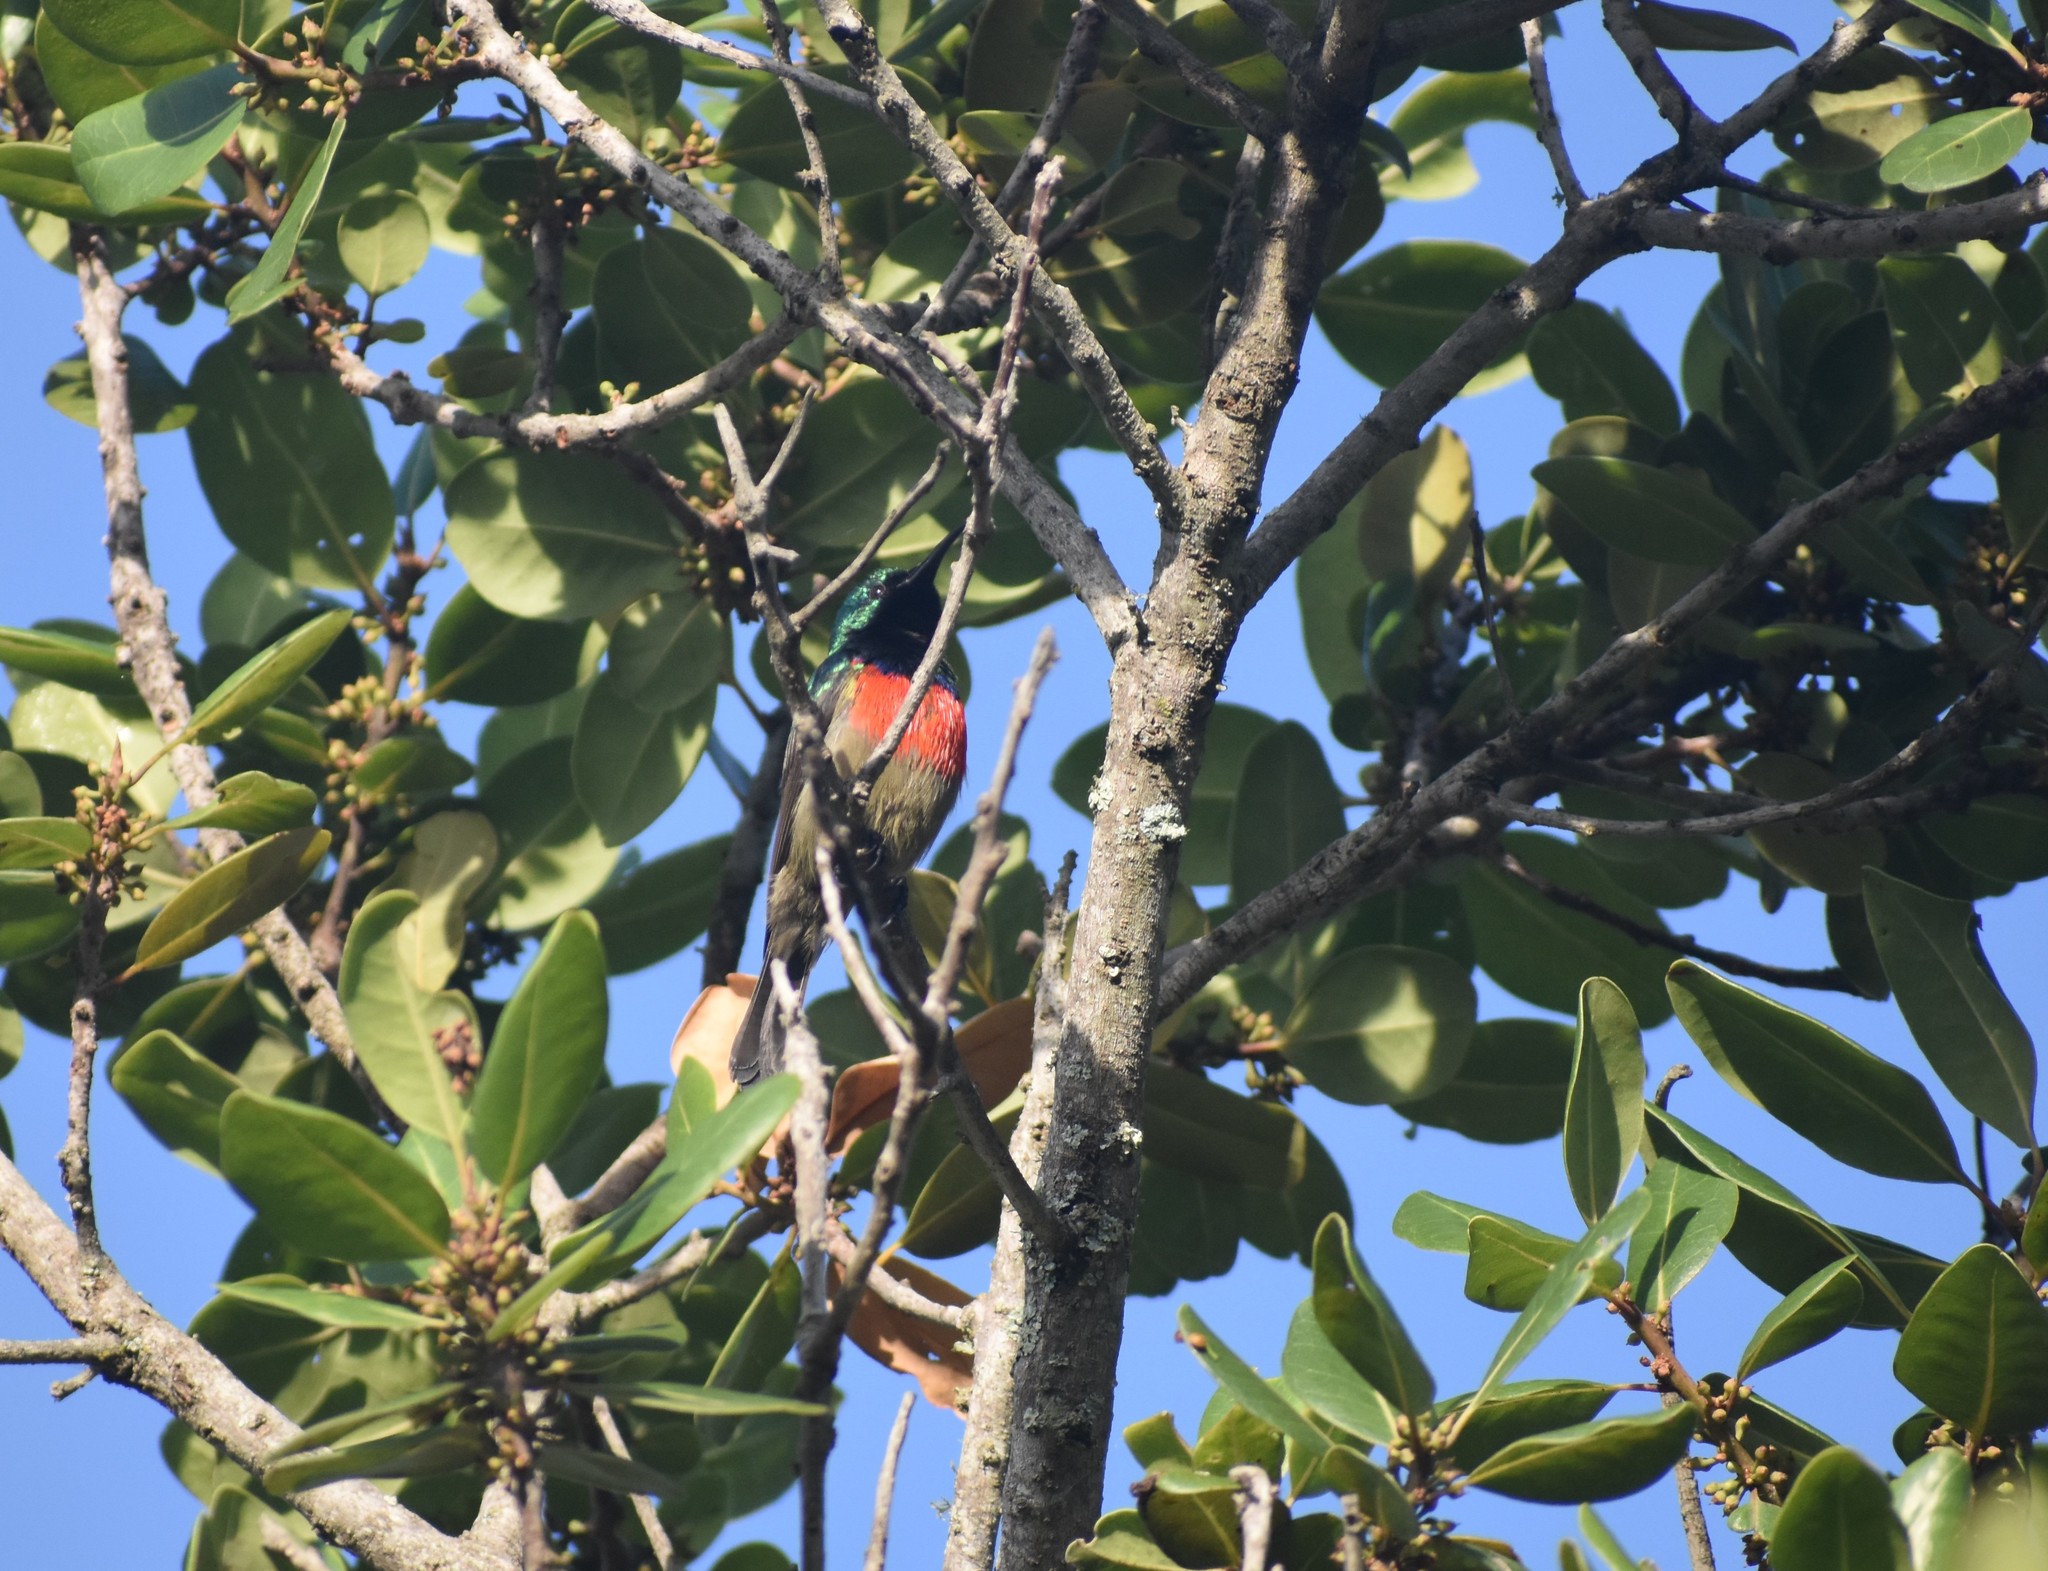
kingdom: Animalia
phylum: Chordata
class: Aves
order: Passeriformes
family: Nectariniidae
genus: Cinnyris
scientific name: Cinnyris afer
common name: Greater double-collared sunbird
